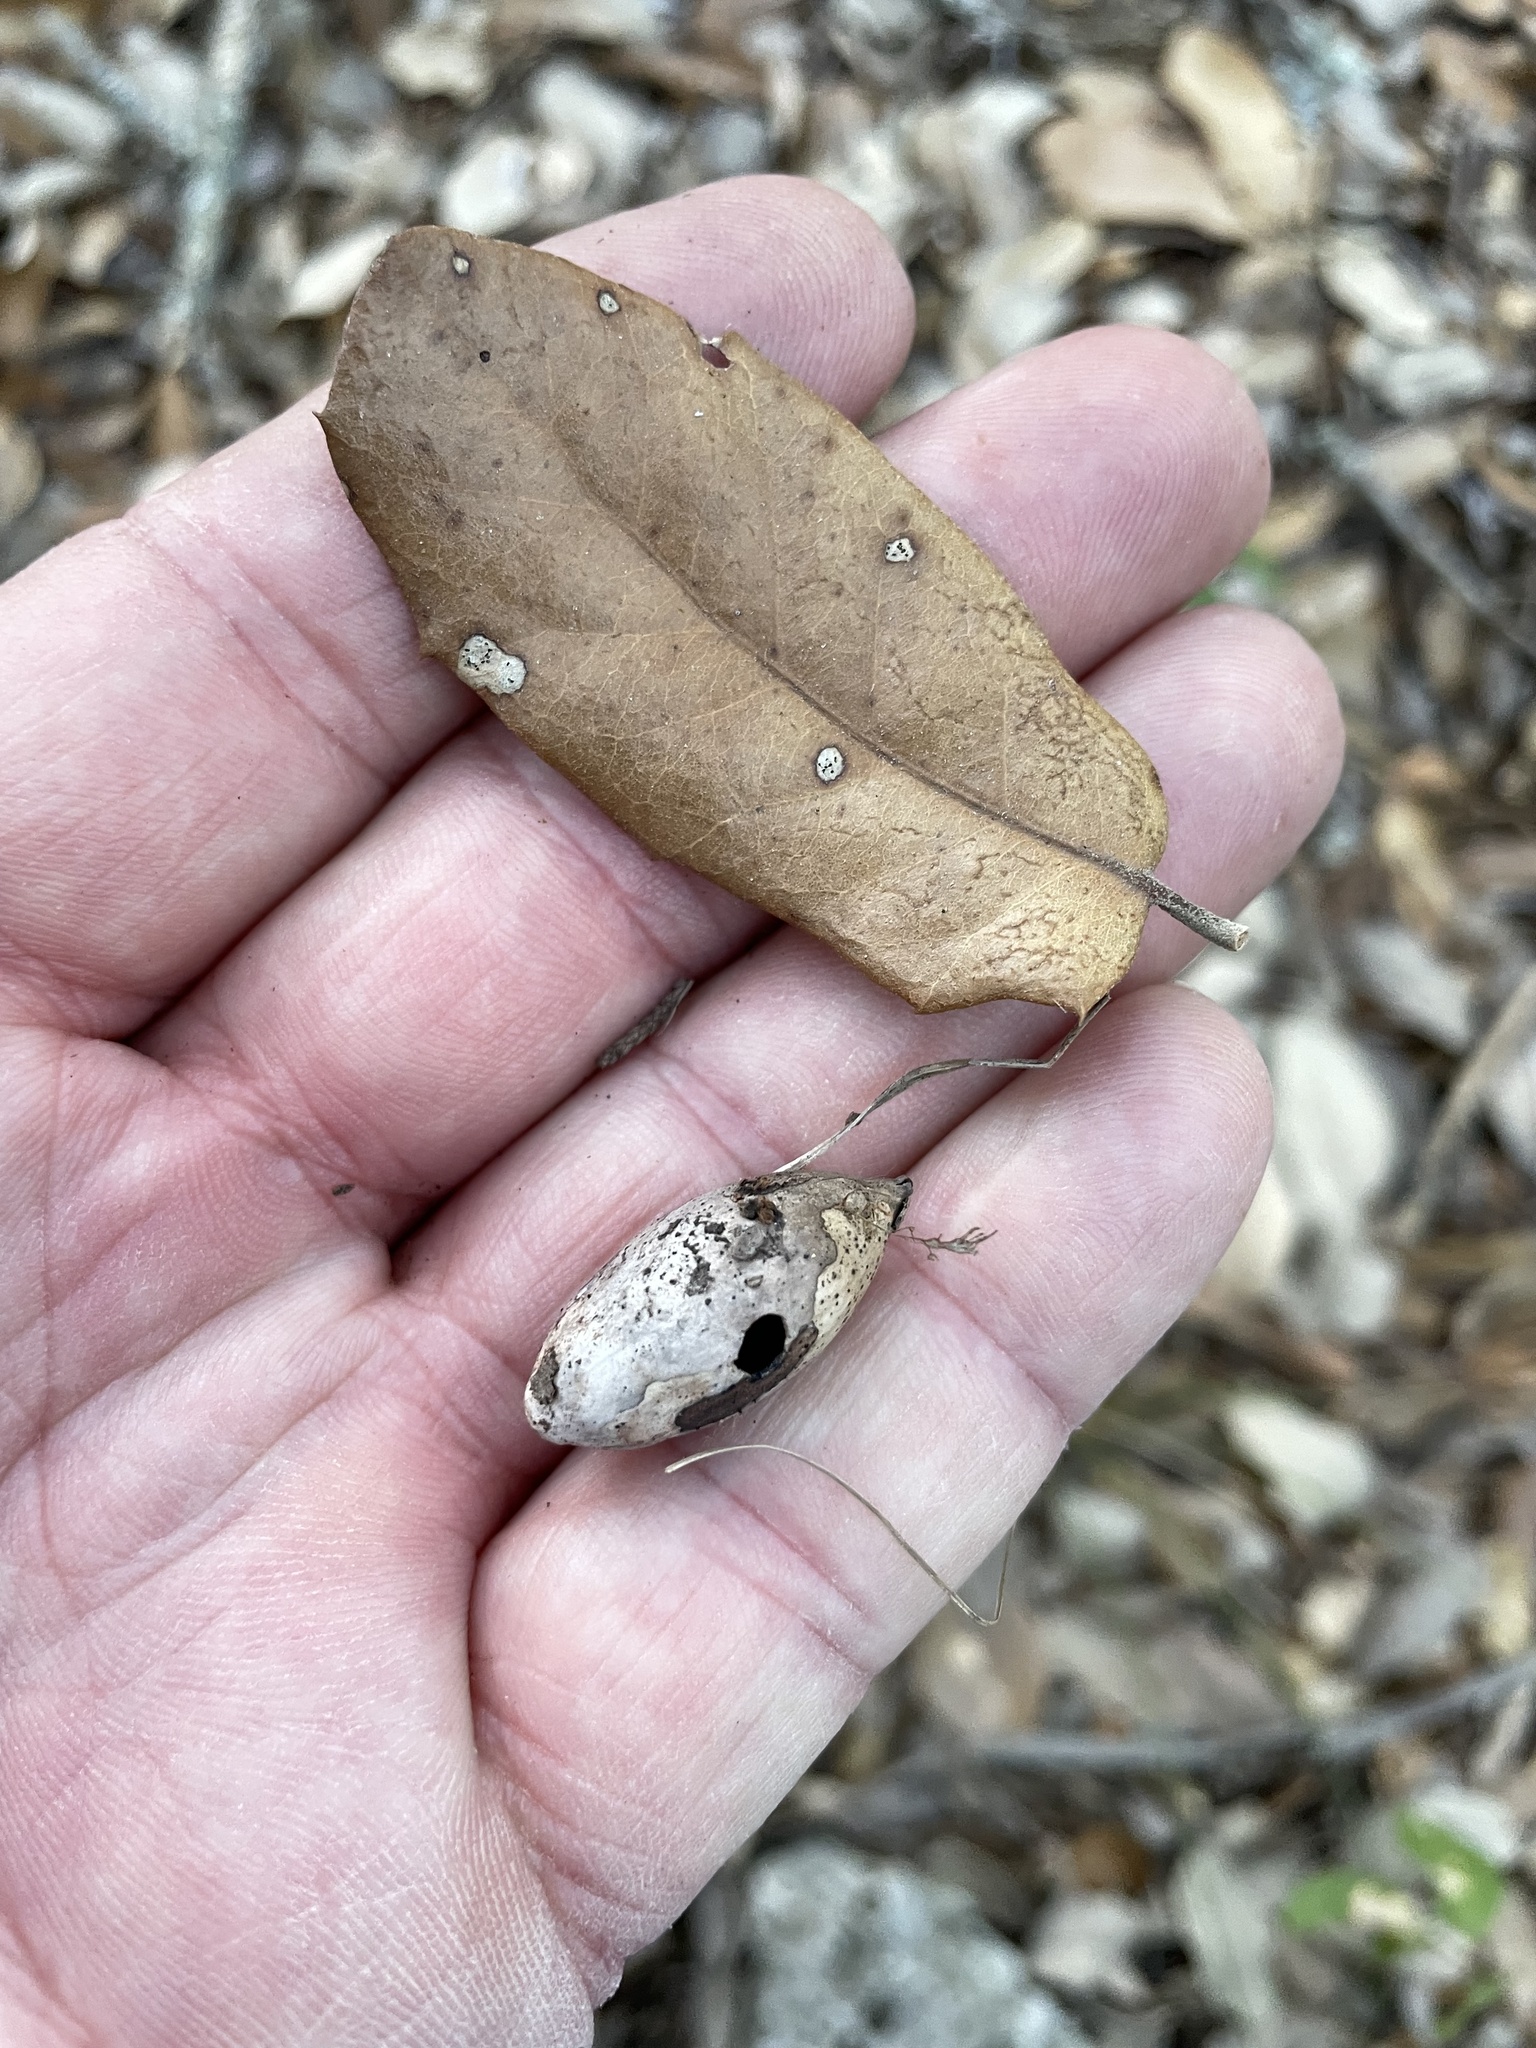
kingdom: Plantae
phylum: Tracheophyta
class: Magnoliopsida
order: Fagales
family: Fagaceae
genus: Quercus
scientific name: Quercus fusiformis
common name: Texas live oak
